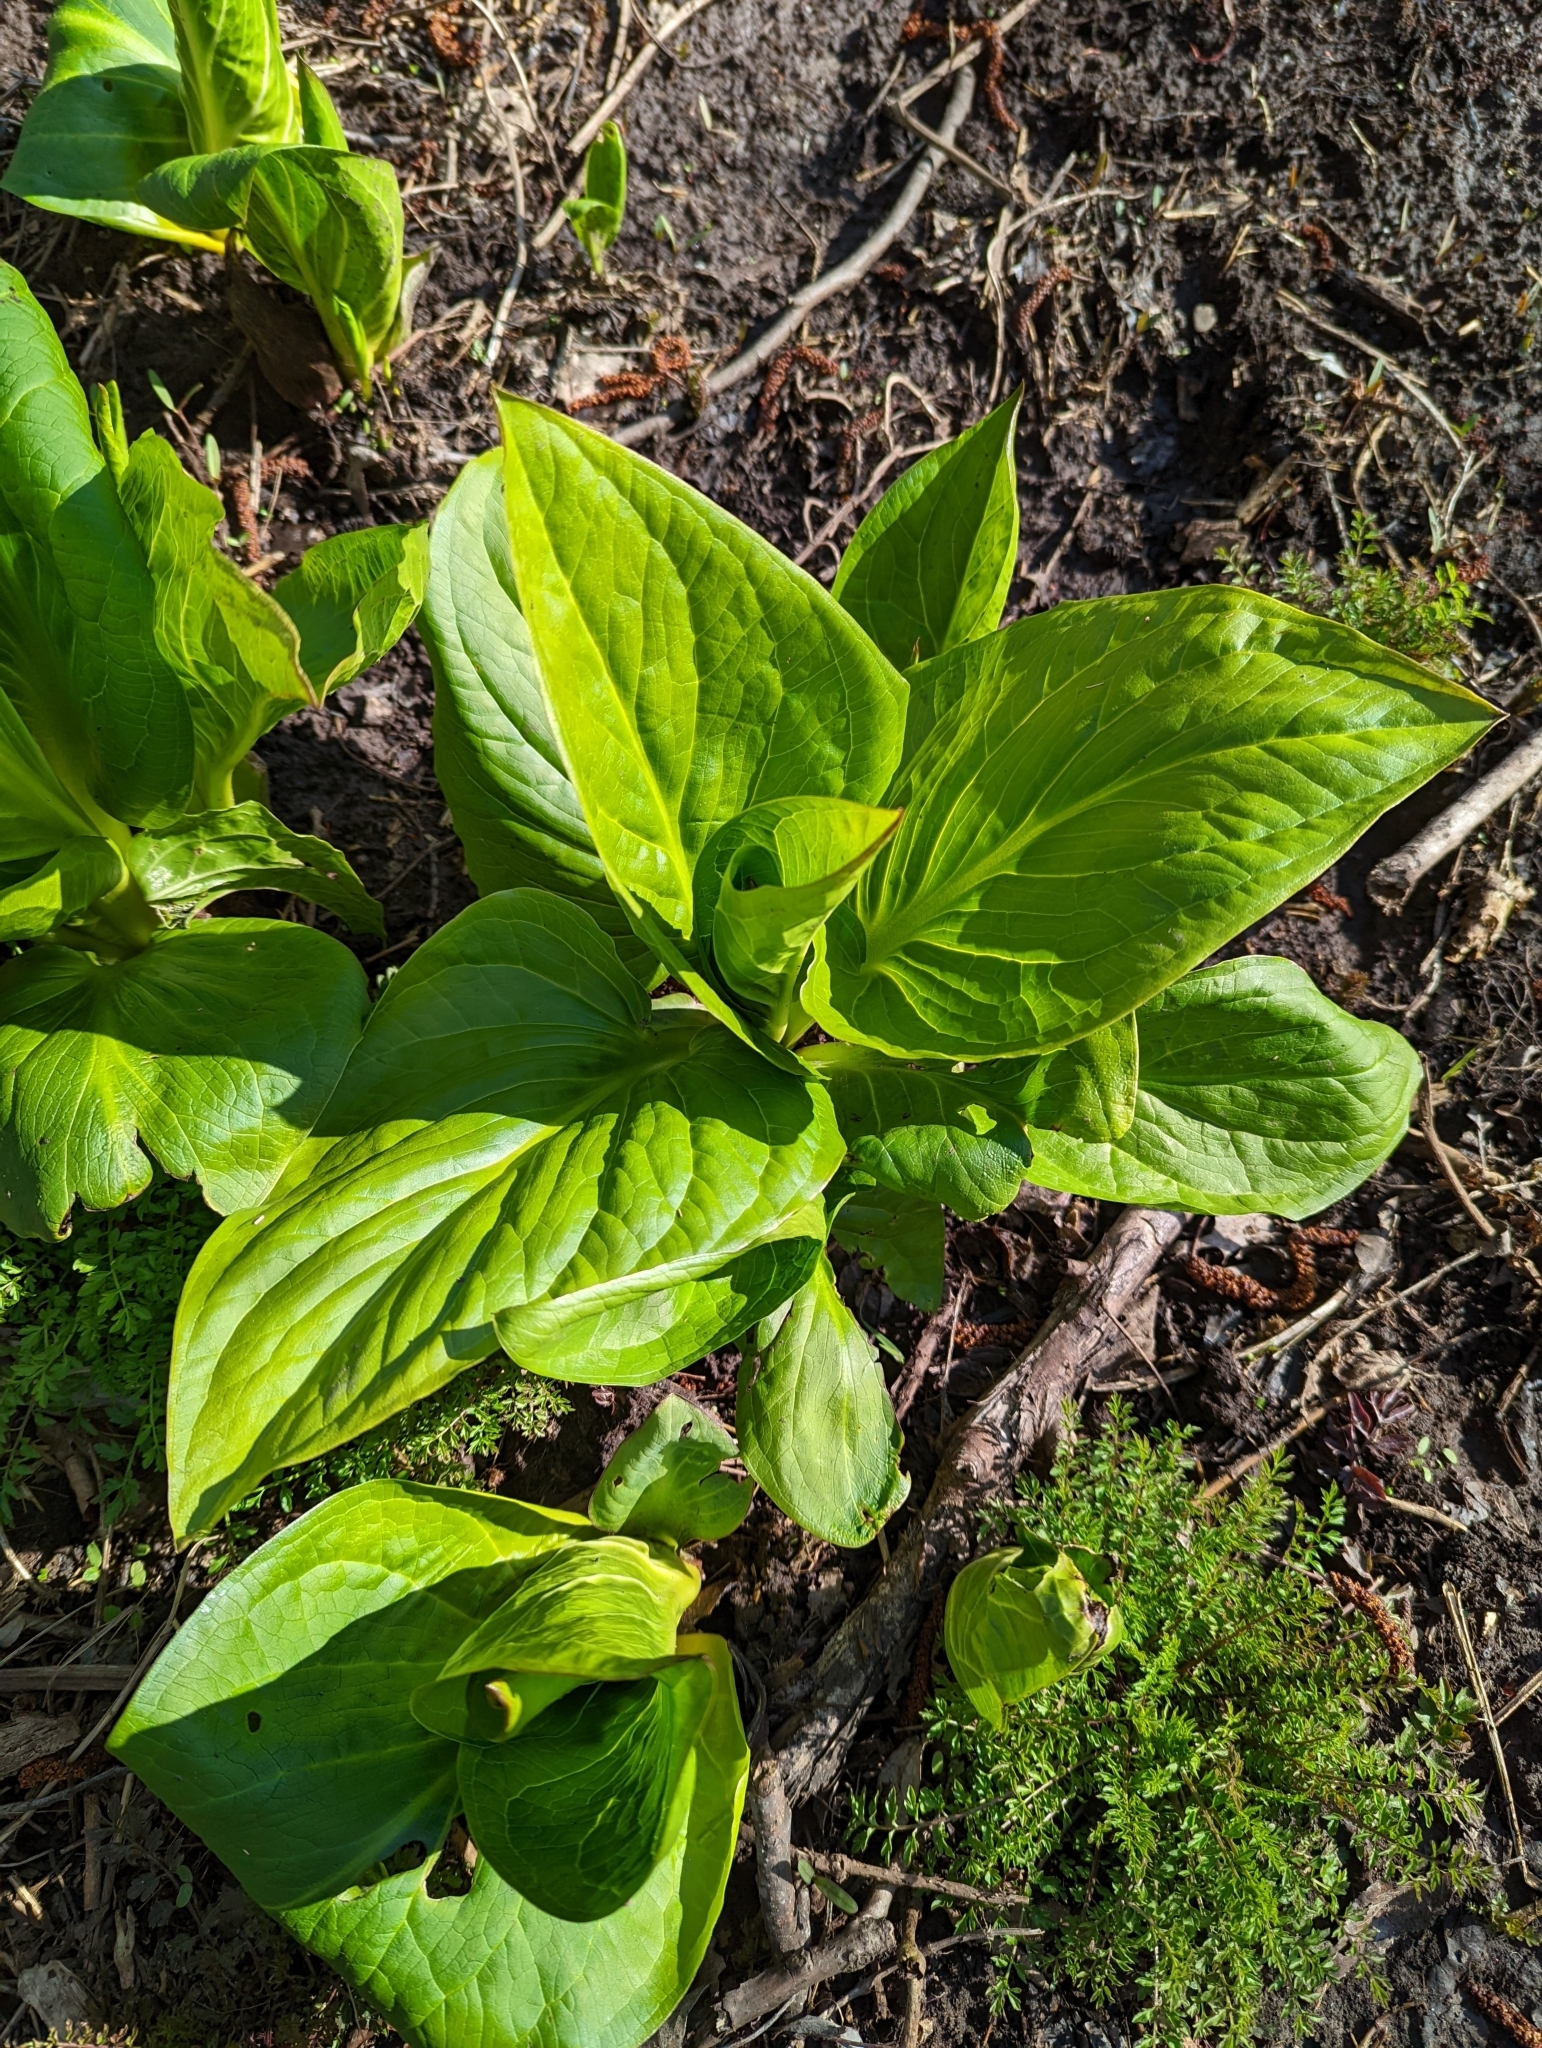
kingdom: Plantae
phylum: Tracheophyta
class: Liliopsida
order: Alismatales
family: Araceae
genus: Symplocarpus
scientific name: Symplocarpus foetidus
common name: Eastern skunk cabbage
